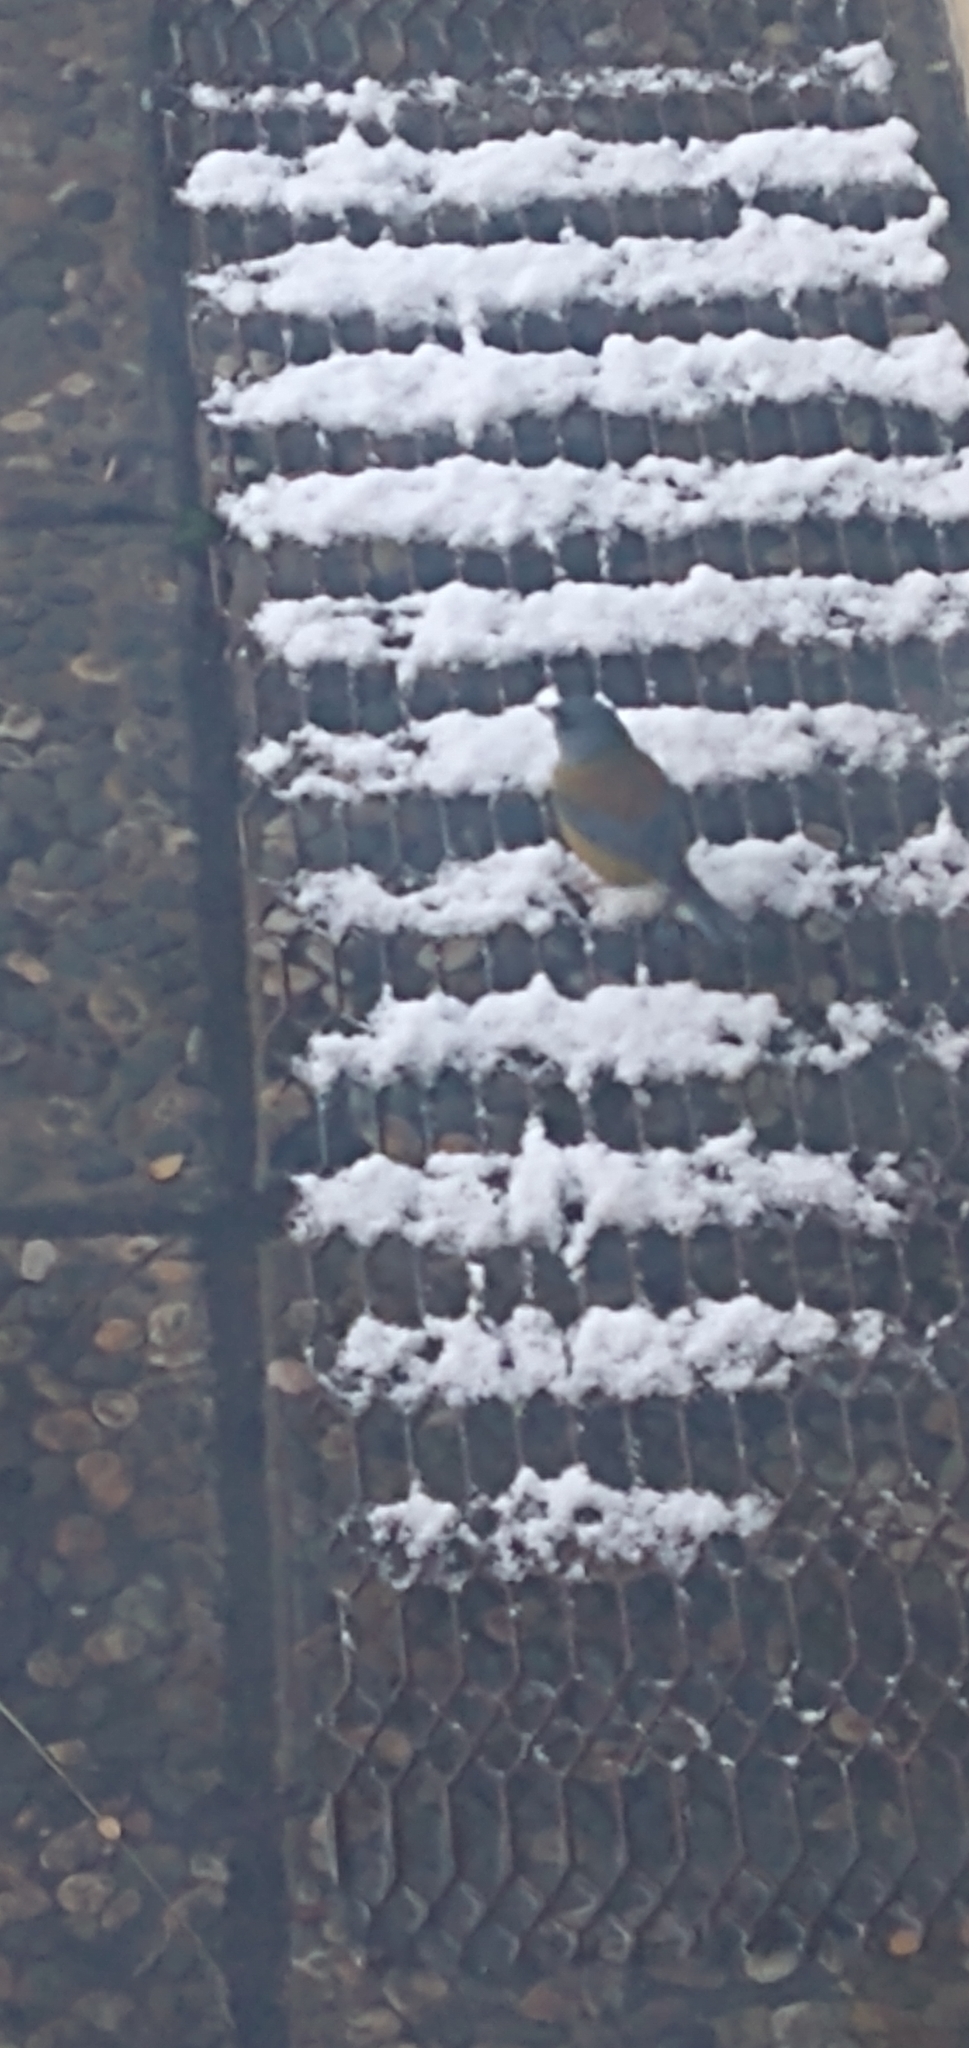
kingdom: Animalia
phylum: Chordata
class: Aves
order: Passeriformes
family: Thraupidae
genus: Phrygilus
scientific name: Phrygilus patagonicus
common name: Patagonian sierra finch
